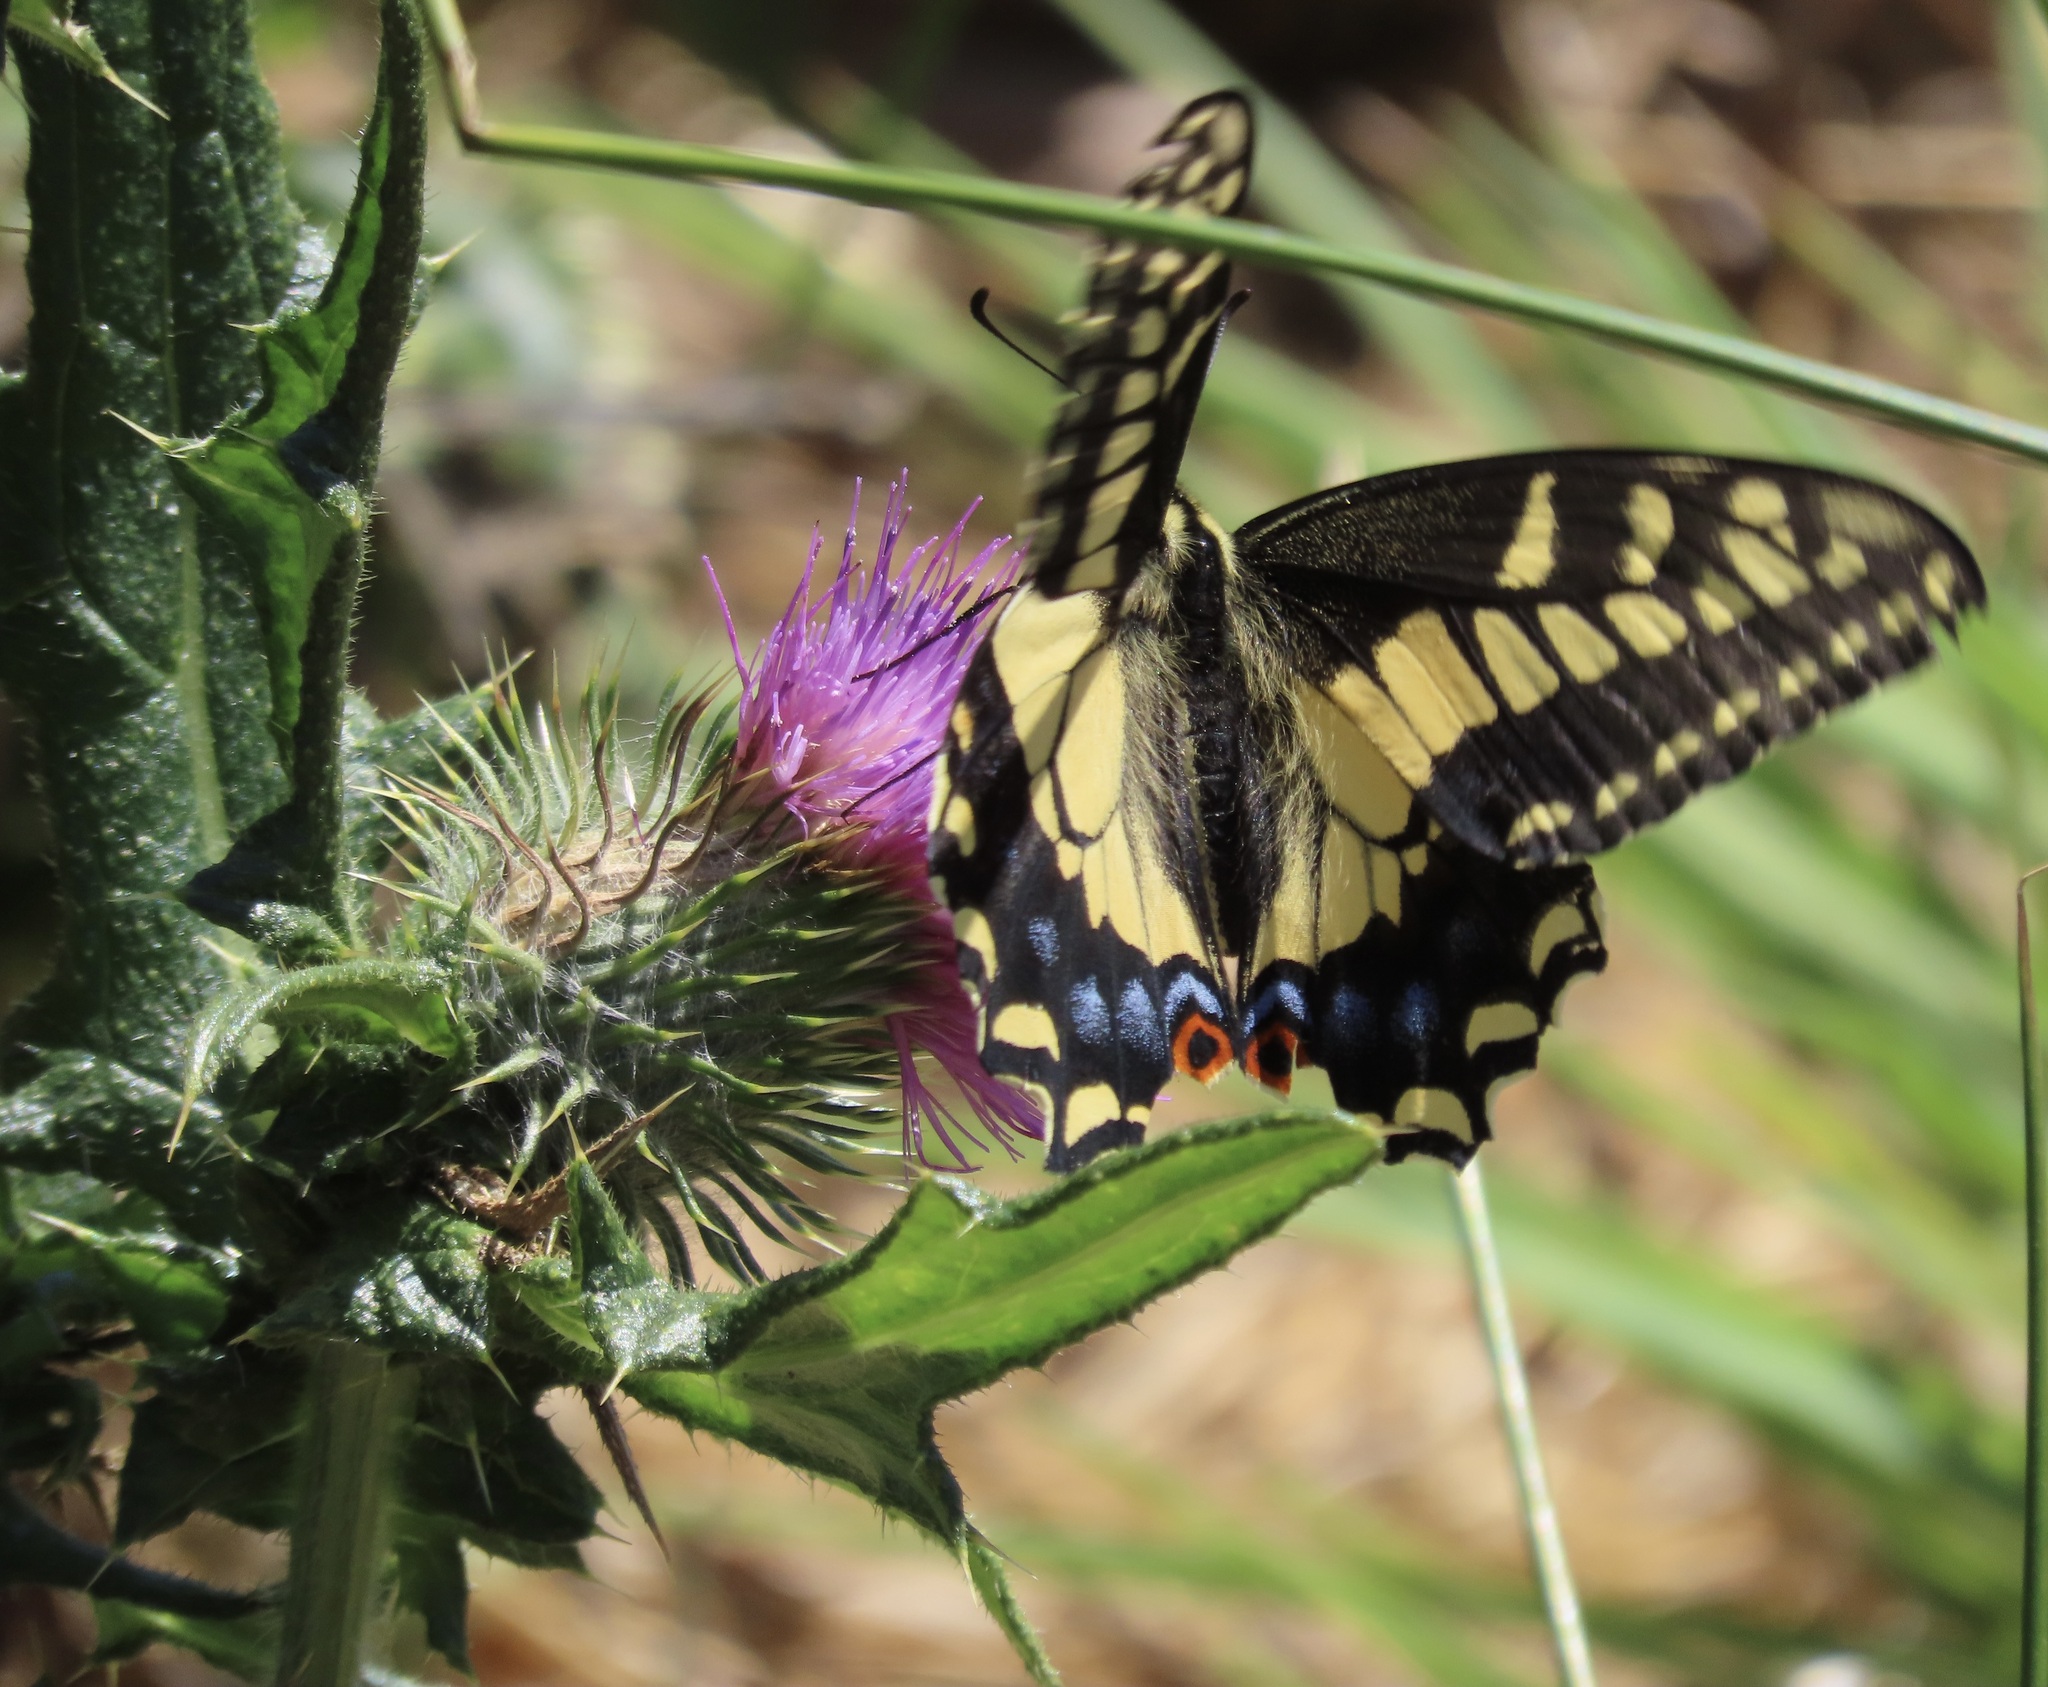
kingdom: Animalia
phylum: Arthropoda
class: Insecta
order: Lepidoptera
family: Papilionidae
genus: Papilio
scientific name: Papilio zelicaon
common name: Anise swallowtail
